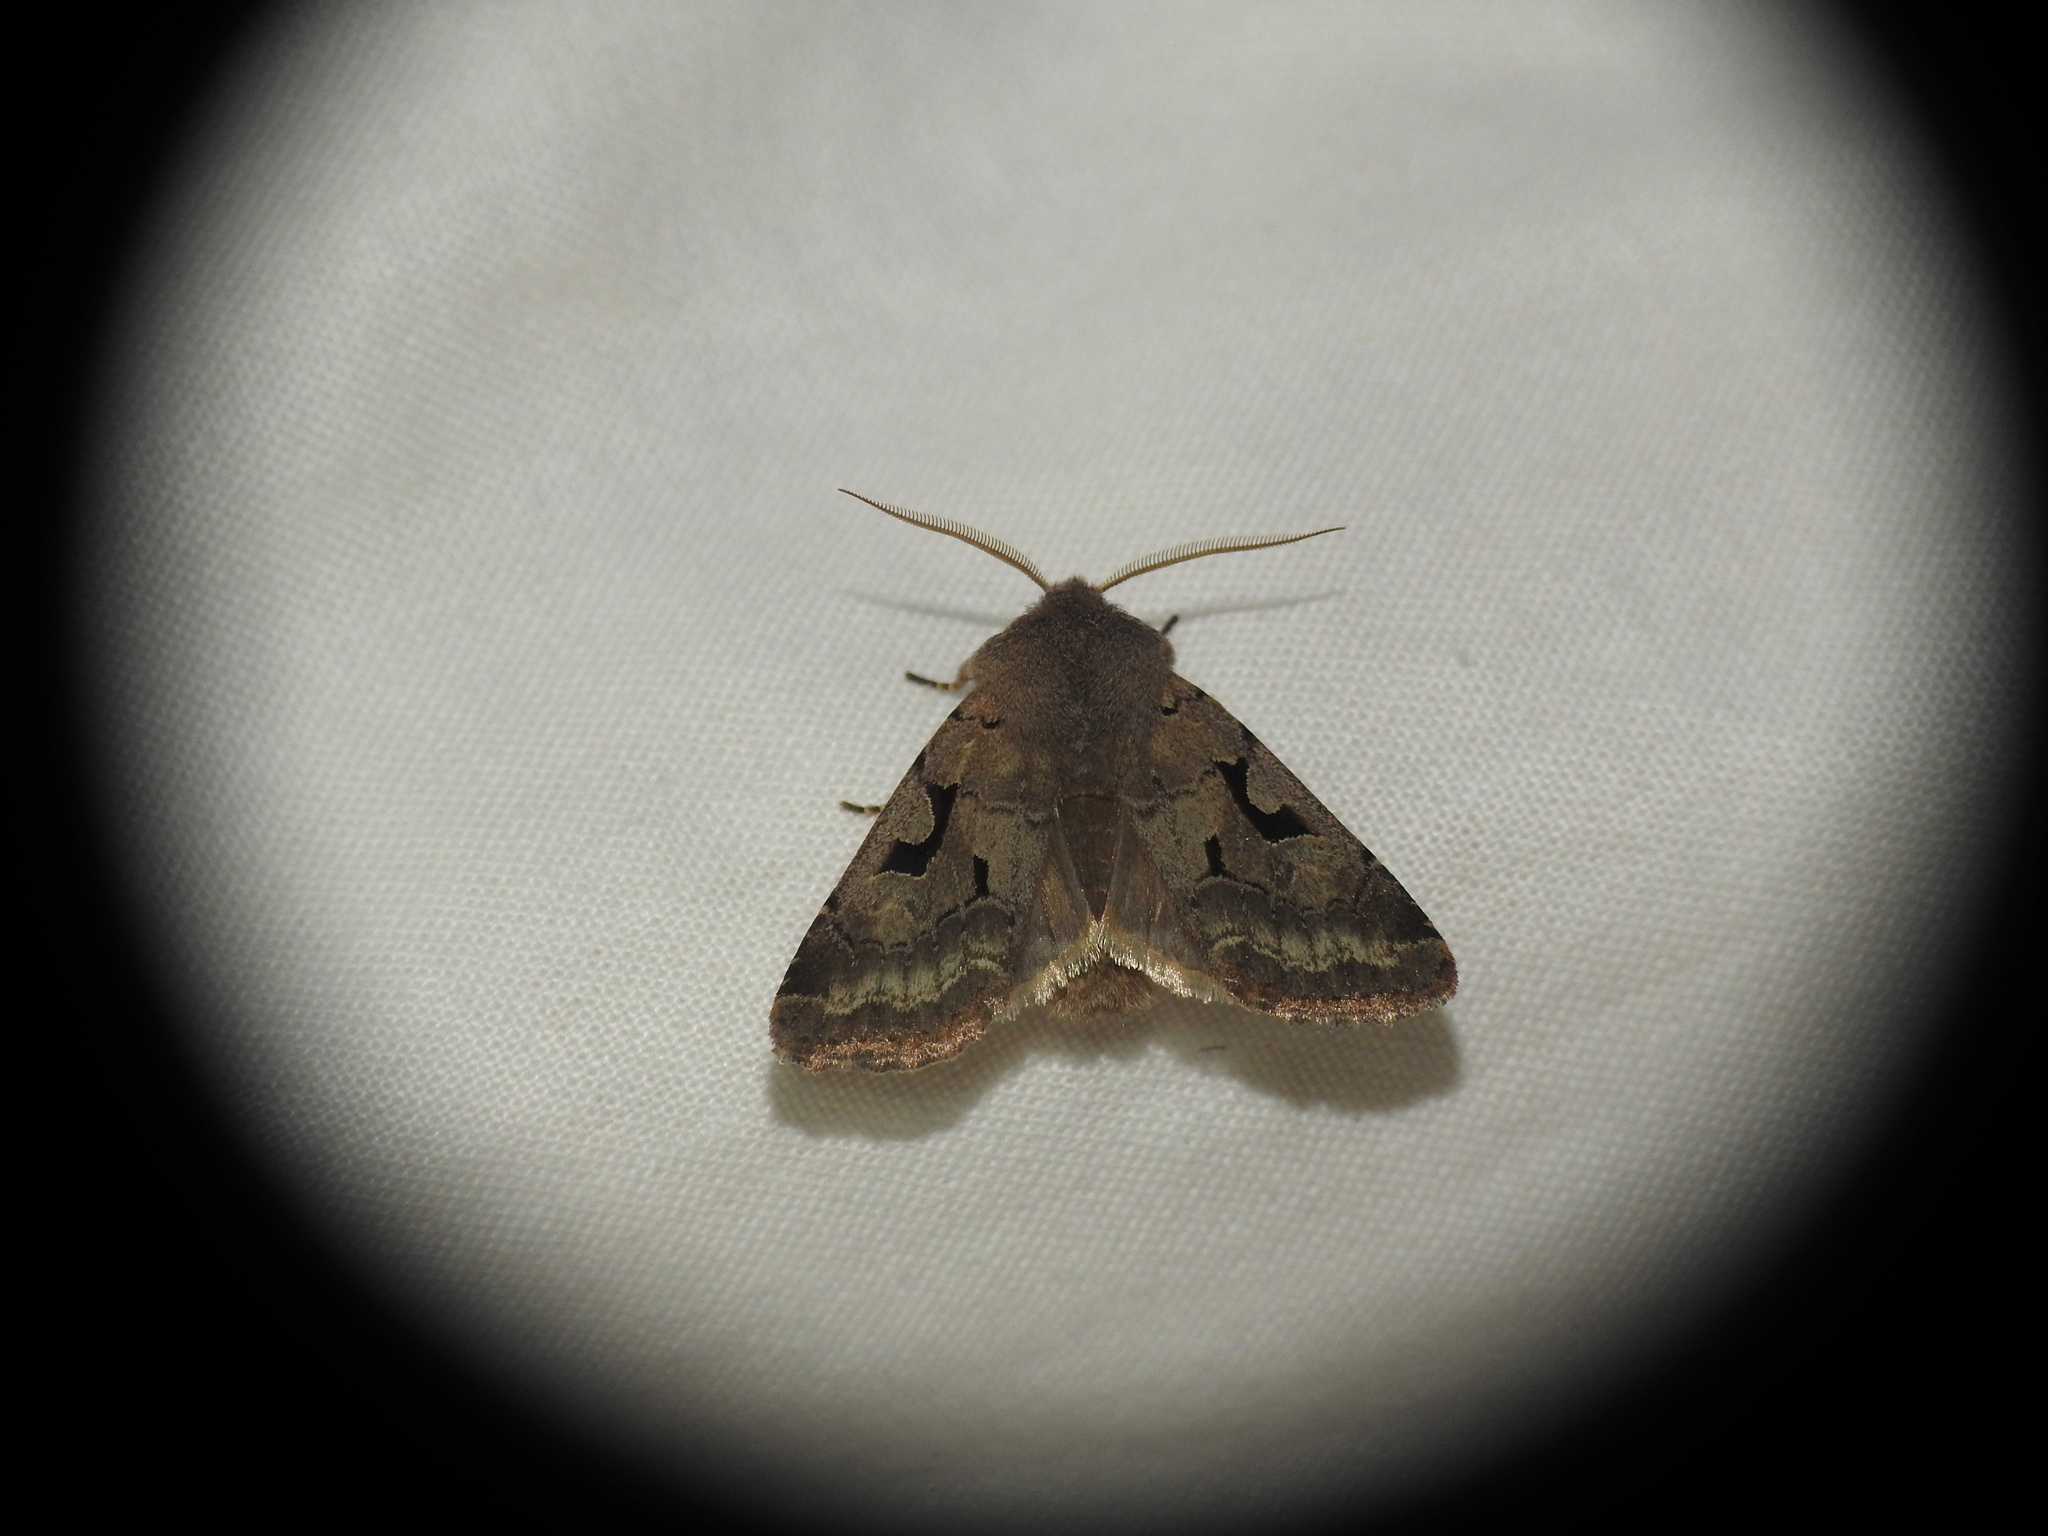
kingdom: Animalia
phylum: Arthropoda
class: Insecta
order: Lepidoptera
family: Noctuidae
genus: Orthosia
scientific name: Orthosia gothica
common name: Hebrew character
